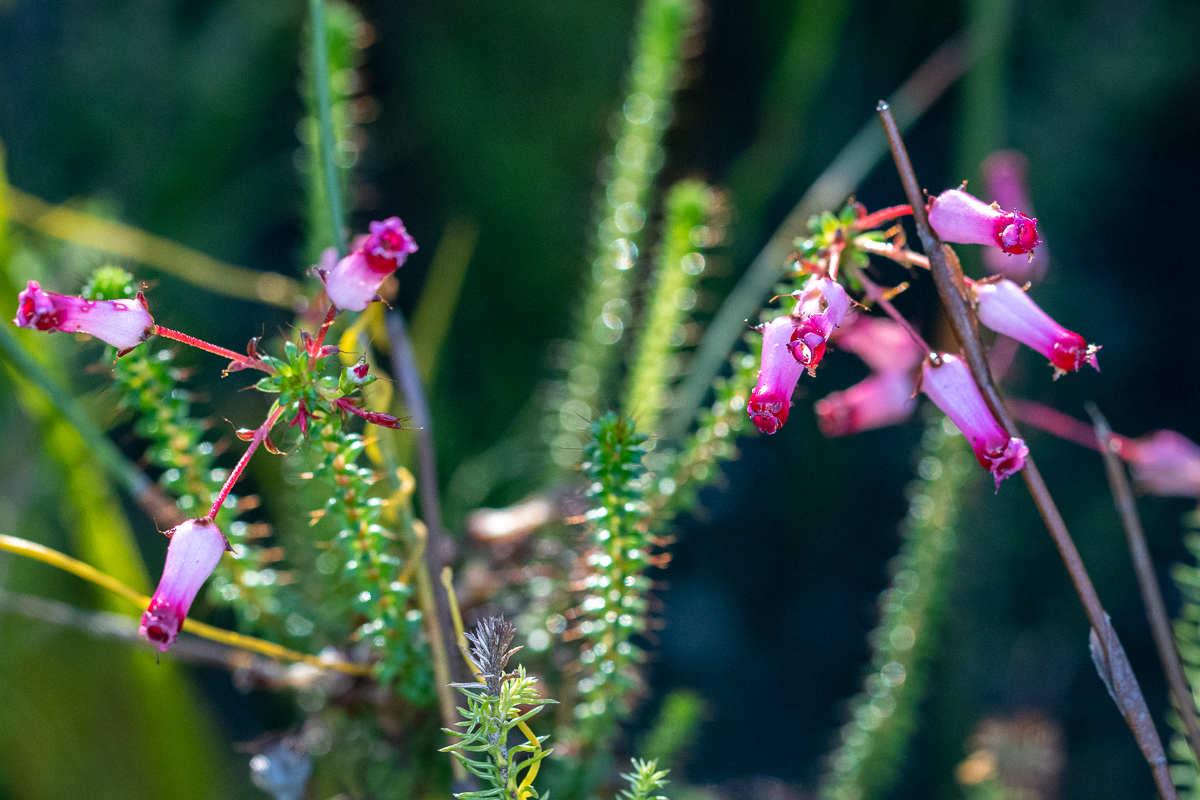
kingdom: Plantae
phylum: Tracheophyta
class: Magnoliopsida
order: Ericales
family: Ericaceae
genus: Erica
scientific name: Erica retorta
